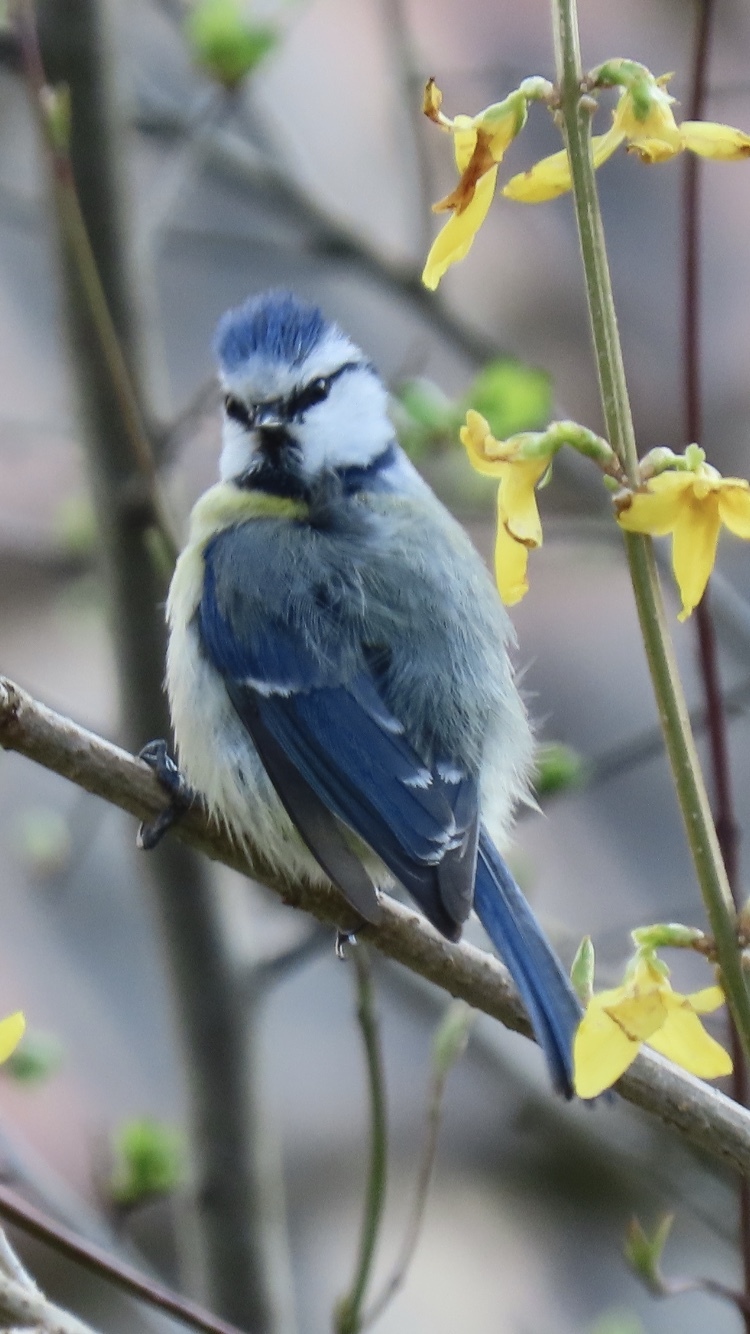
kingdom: Animalia
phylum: Chordata
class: Aves
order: Passeriformes
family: Paridae
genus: Cyanistes
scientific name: Cyanistes caeruleus
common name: Eurasian blue tit
